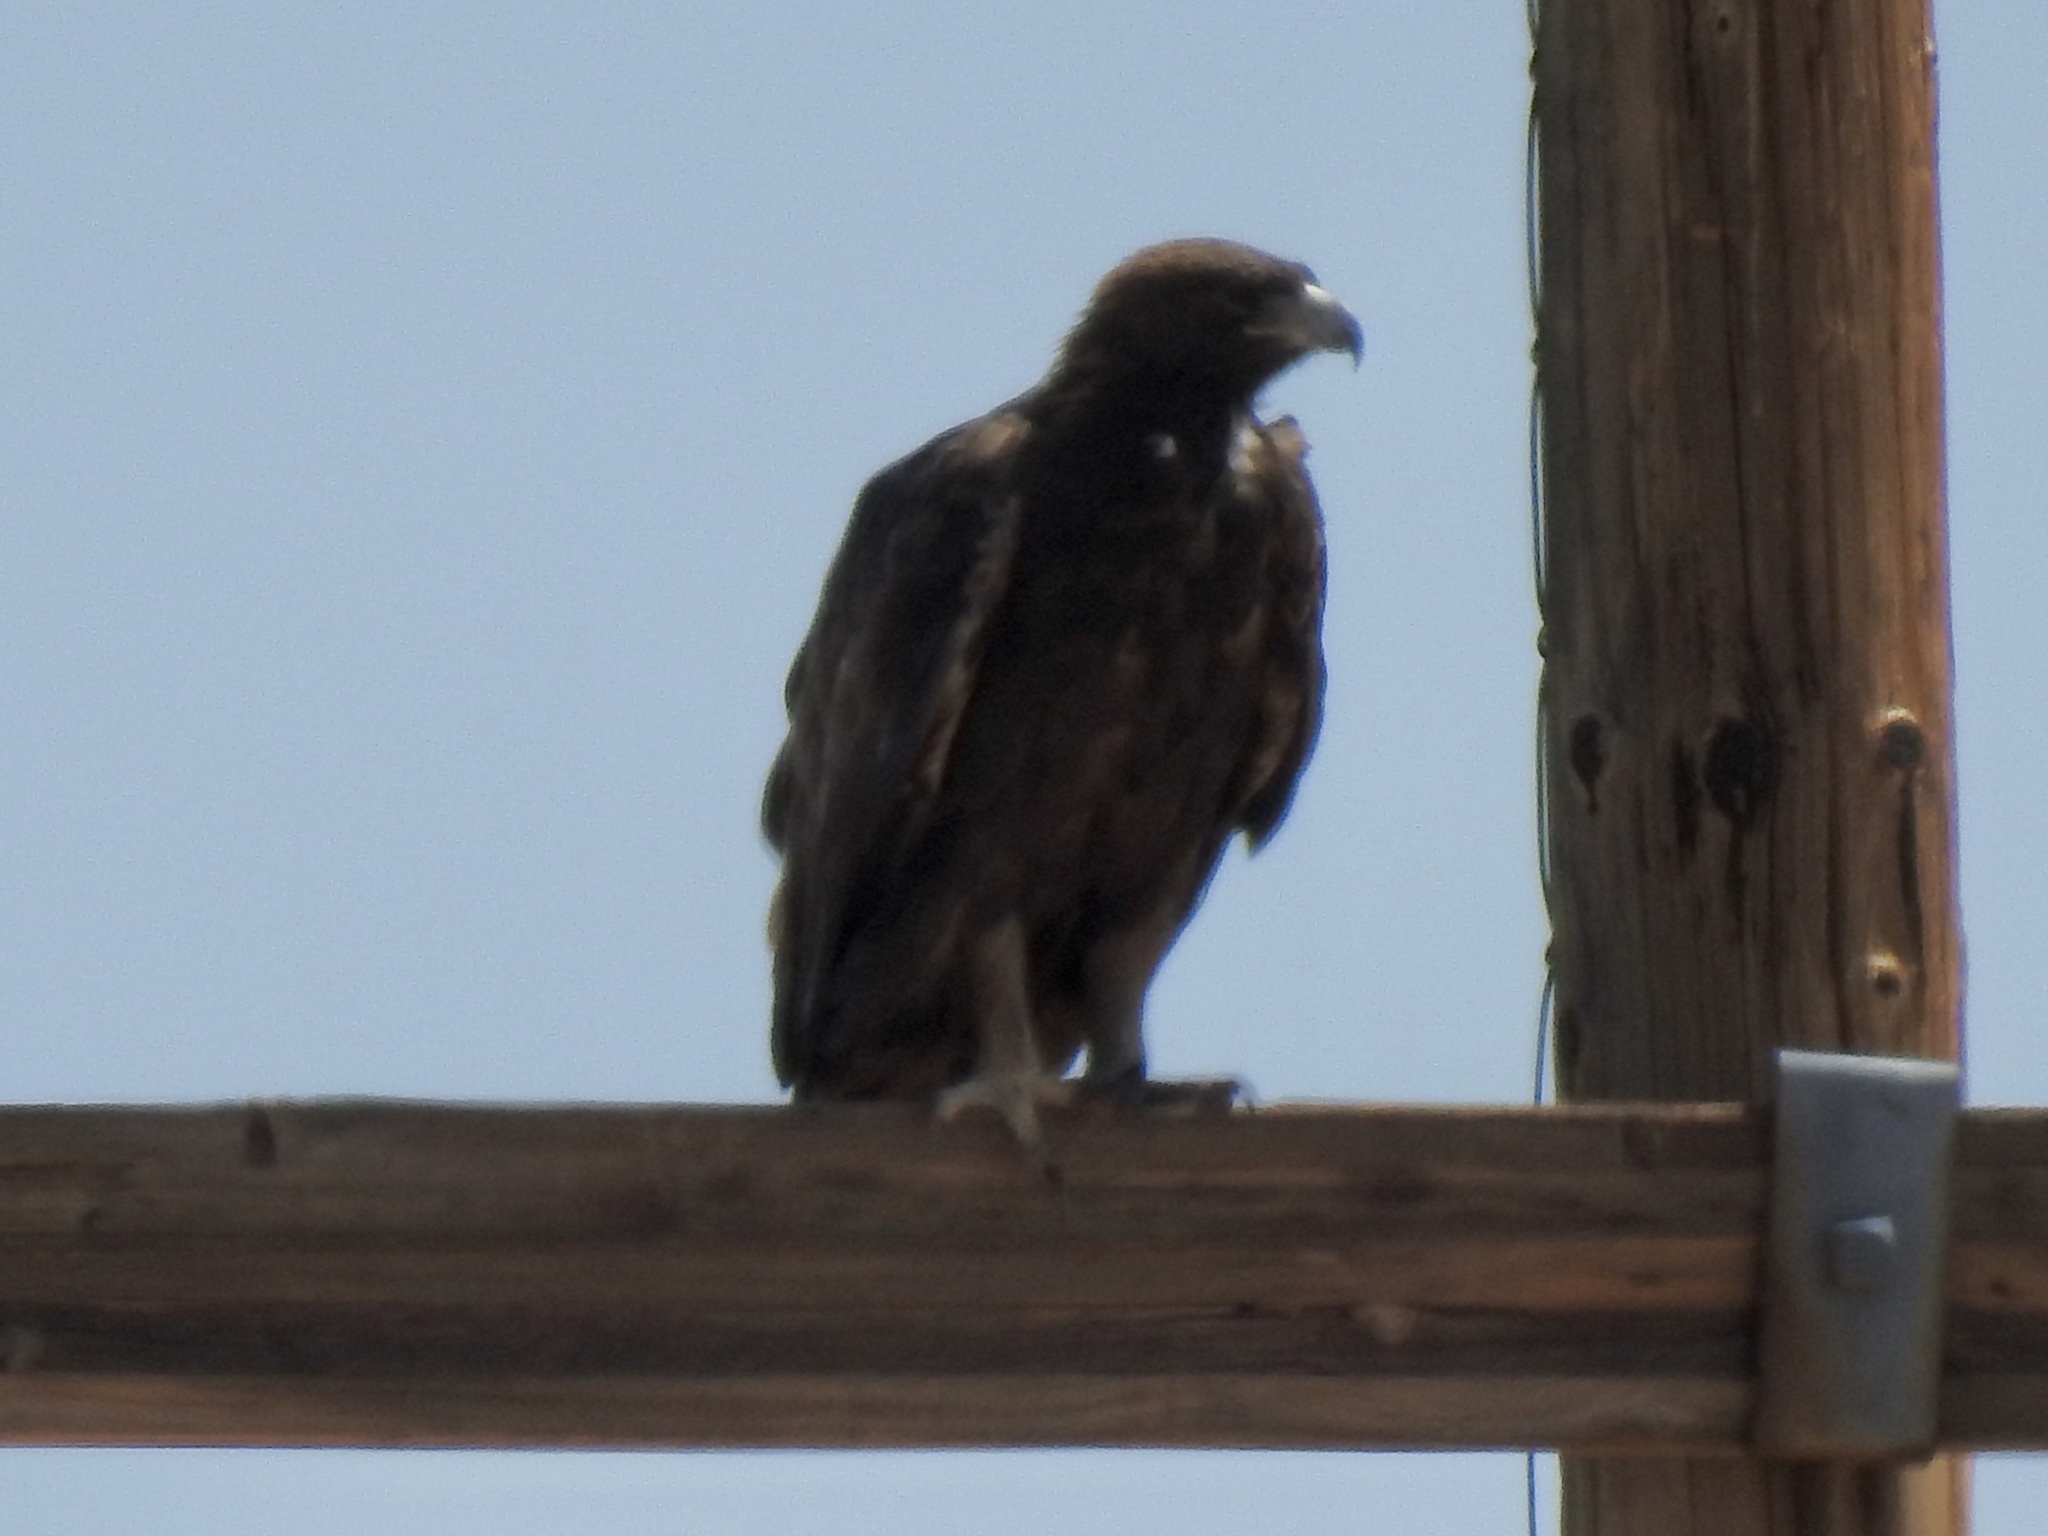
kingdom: Animalia
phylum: Chordata
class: Aves
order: Accipitriformes
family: Accipitridae
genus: Aquila
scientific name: Aquila chrysaetos
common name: Golden eagle
